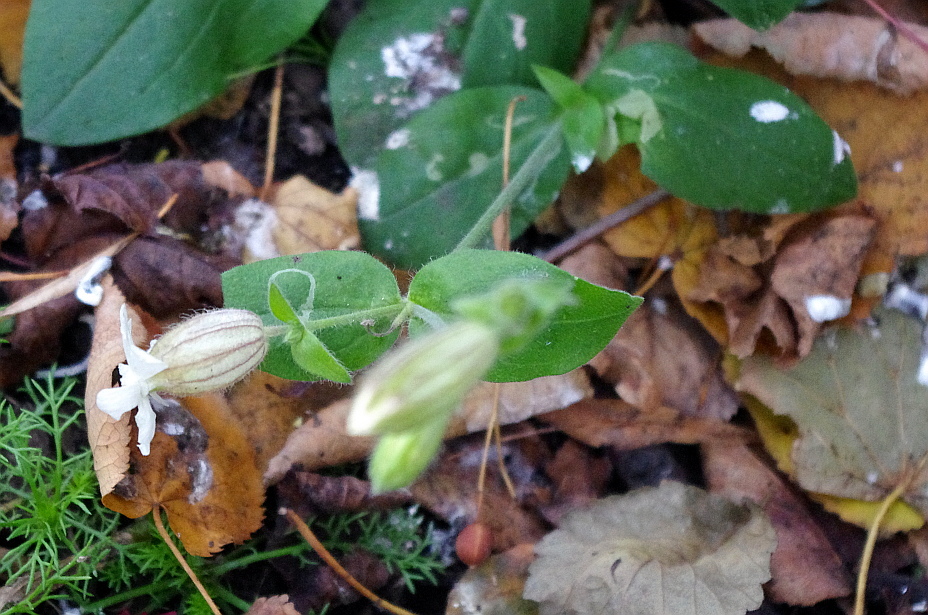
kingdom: Plantae
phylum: Tracheophyta
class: Magnoliopsida
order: Caryophyllales
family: Caryophyllaceae
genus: Silene
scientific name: Silene latifolia
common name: White campion
